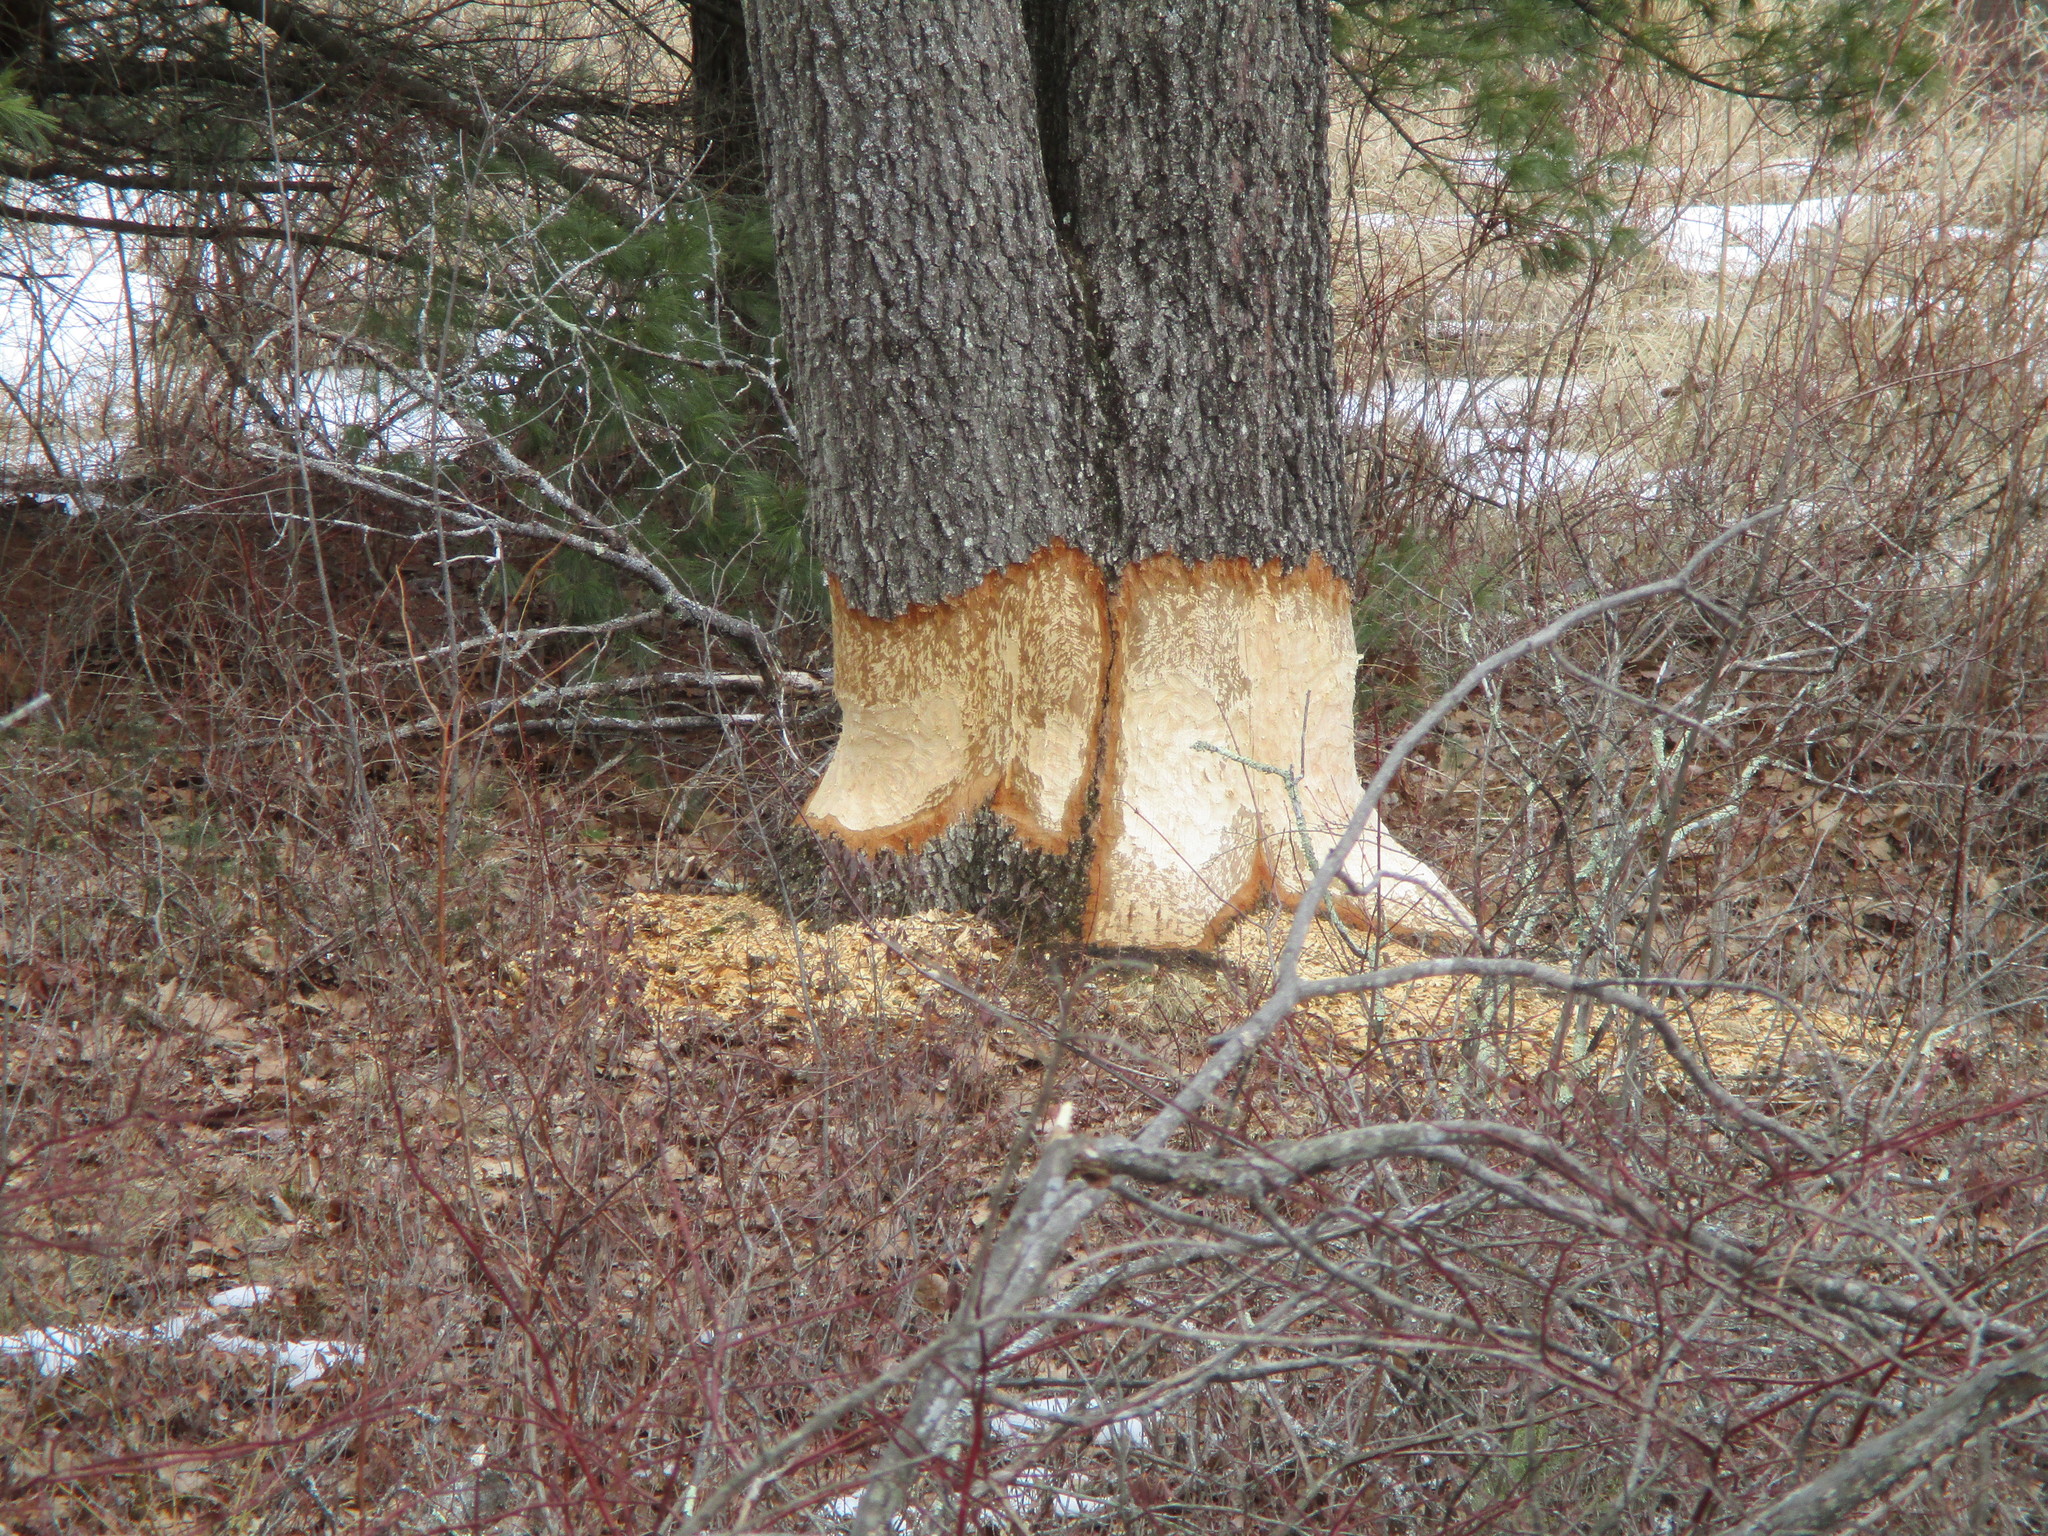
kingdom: Animalia
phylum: Chordata
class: Mammalia
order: Rodentia
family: Castoridae
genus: Castor
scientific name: Castor canadensis
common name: American beaver
